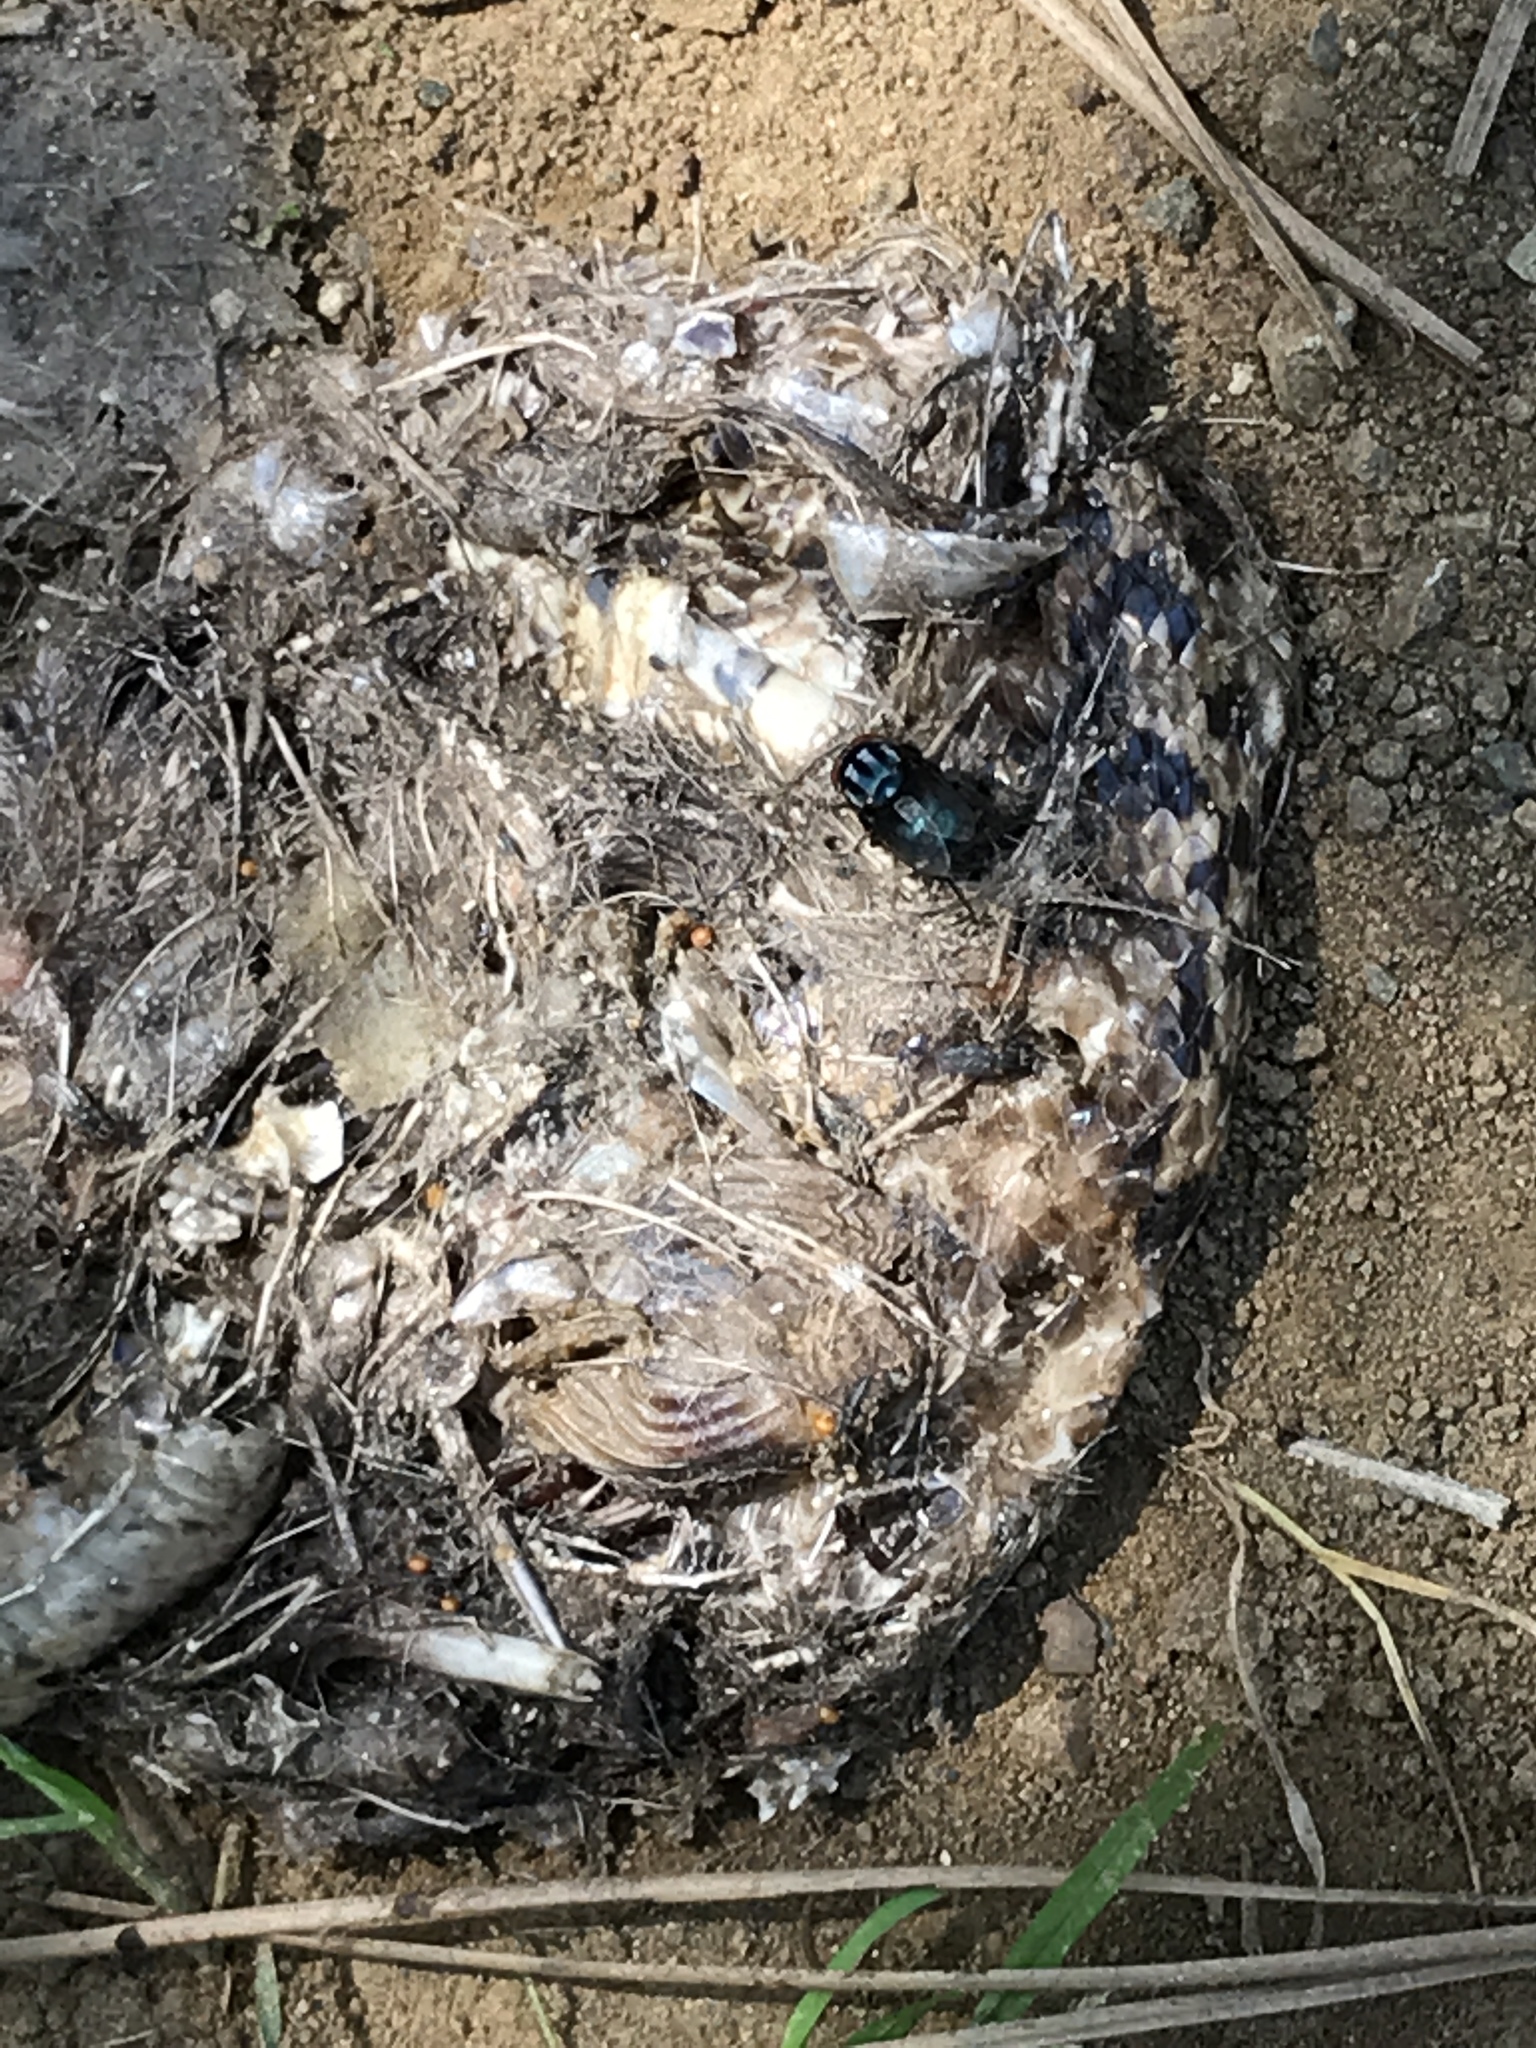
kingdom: Animalia
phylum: Arthropoda
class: Insecta
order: Diptera
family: Calliphoridae
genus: Compsomyiops
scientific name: Compsomyiops callipes
